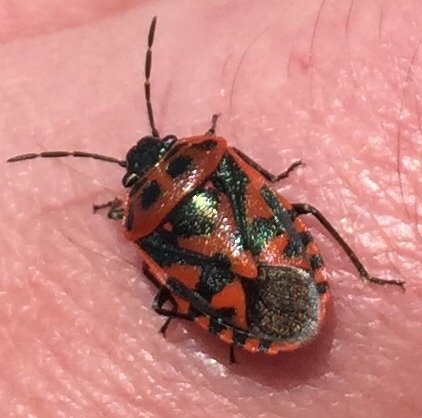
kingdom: Animalia
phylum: Arthropoda
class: Insecta
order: Hemiptera
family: Pentatomidae
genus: Eurydema
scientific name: Eurydema ornata
